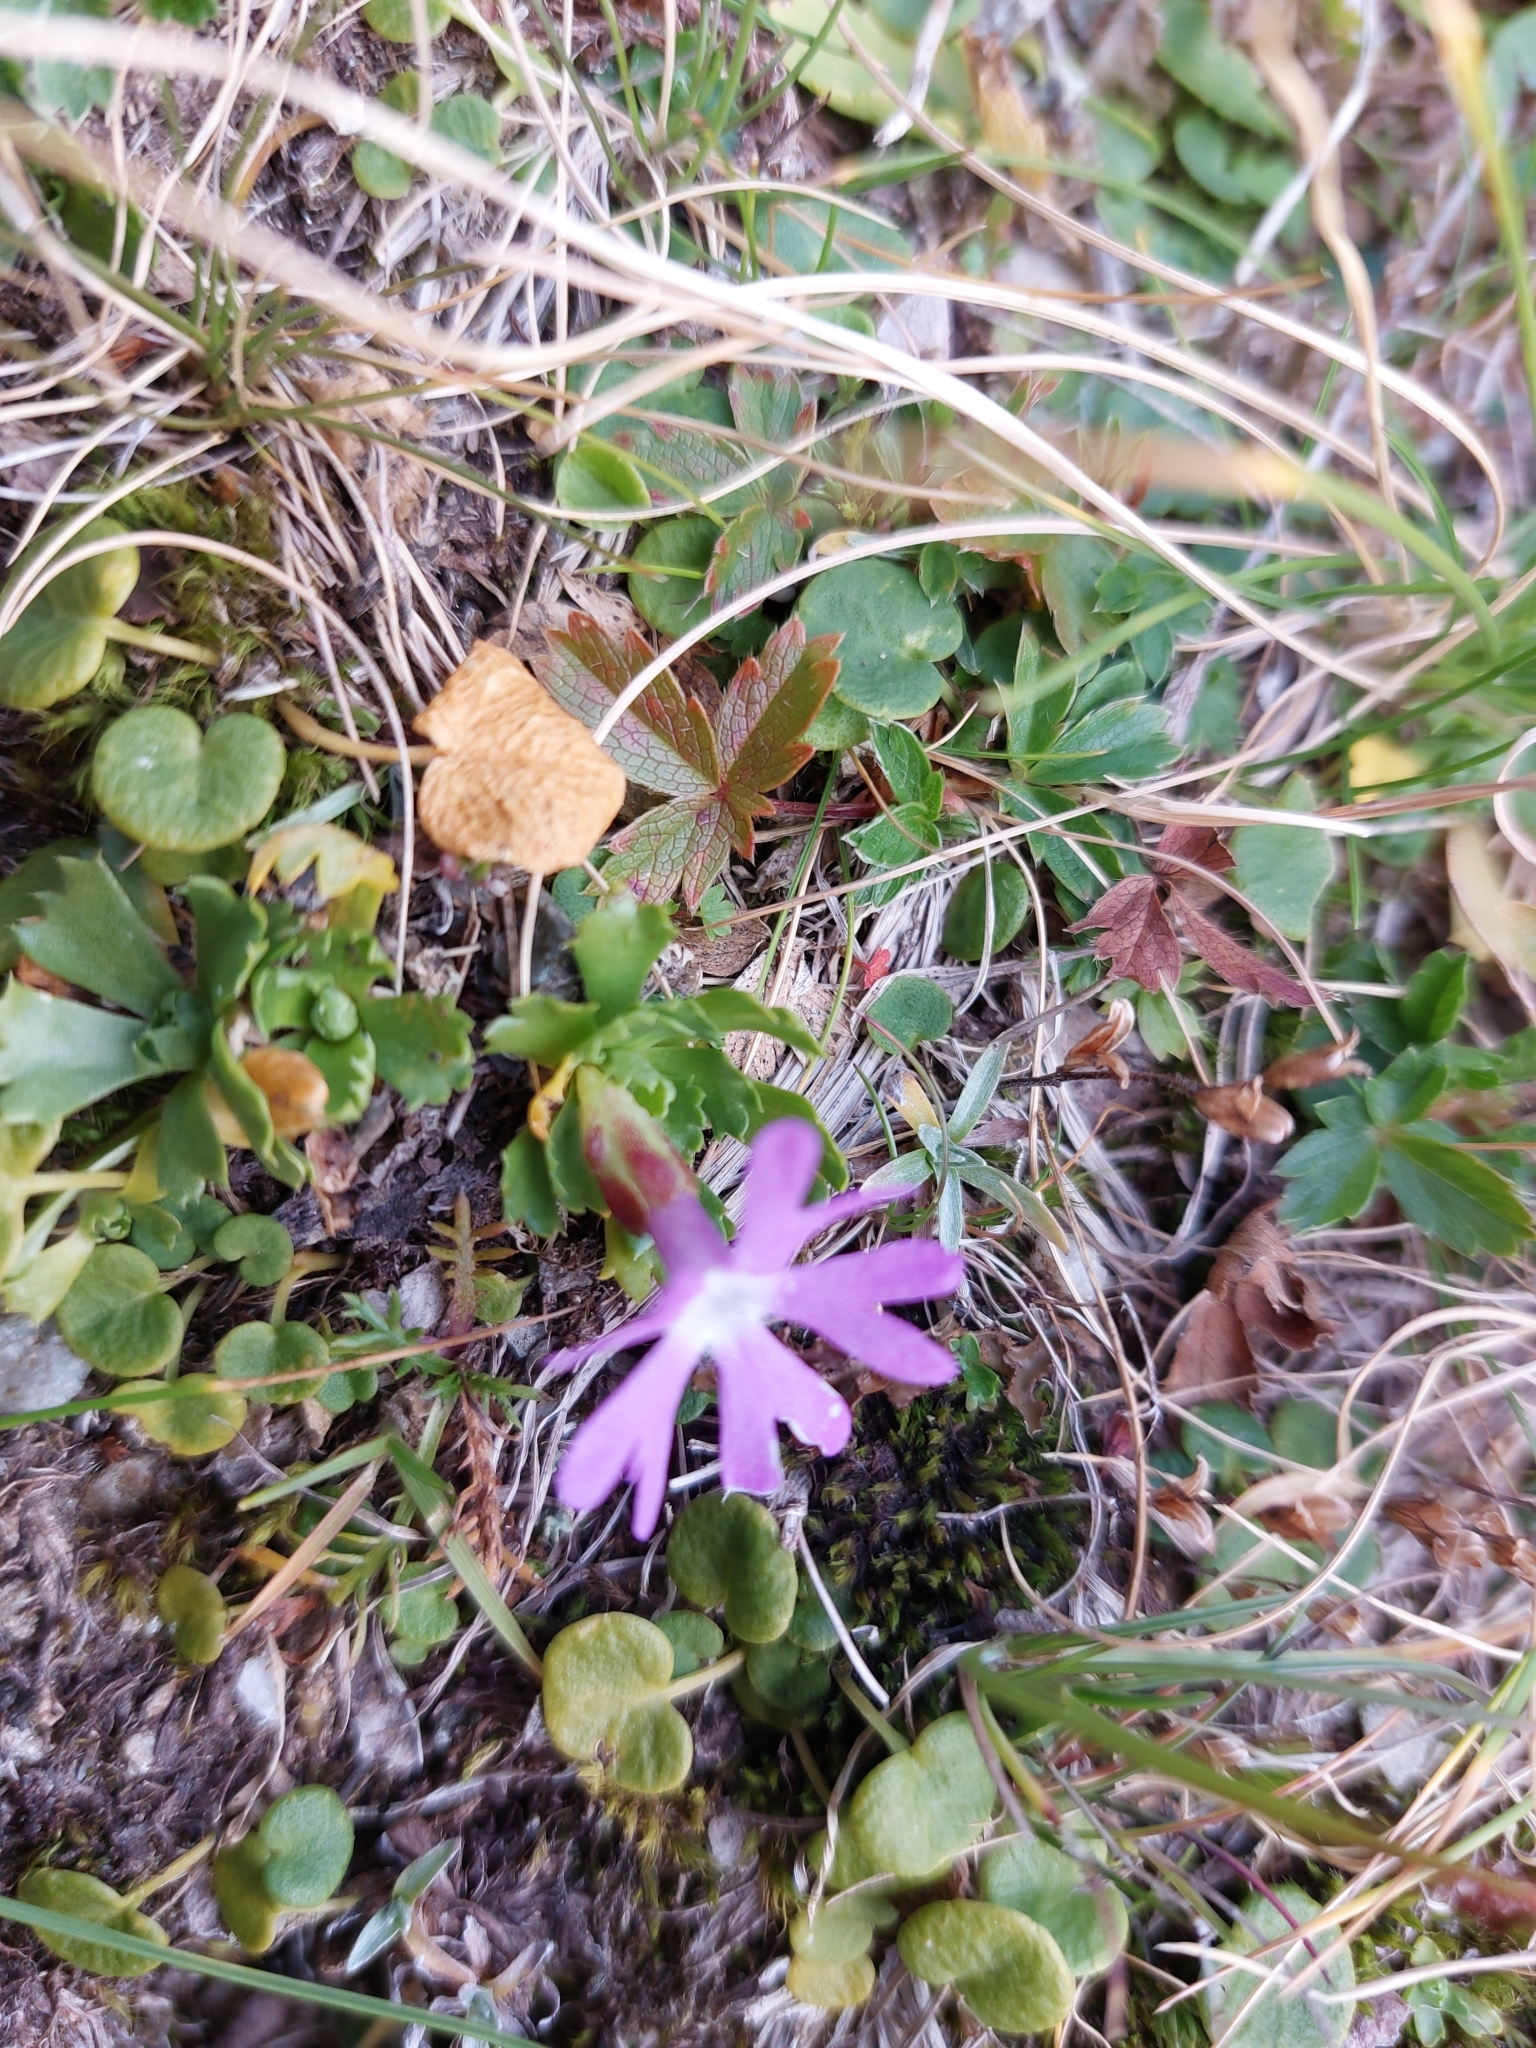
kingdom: Plantae
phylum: Tracheophyta
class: Magnoliopsida
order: Ericales
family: Primulaceae
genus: Primula
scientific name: Primula minima
